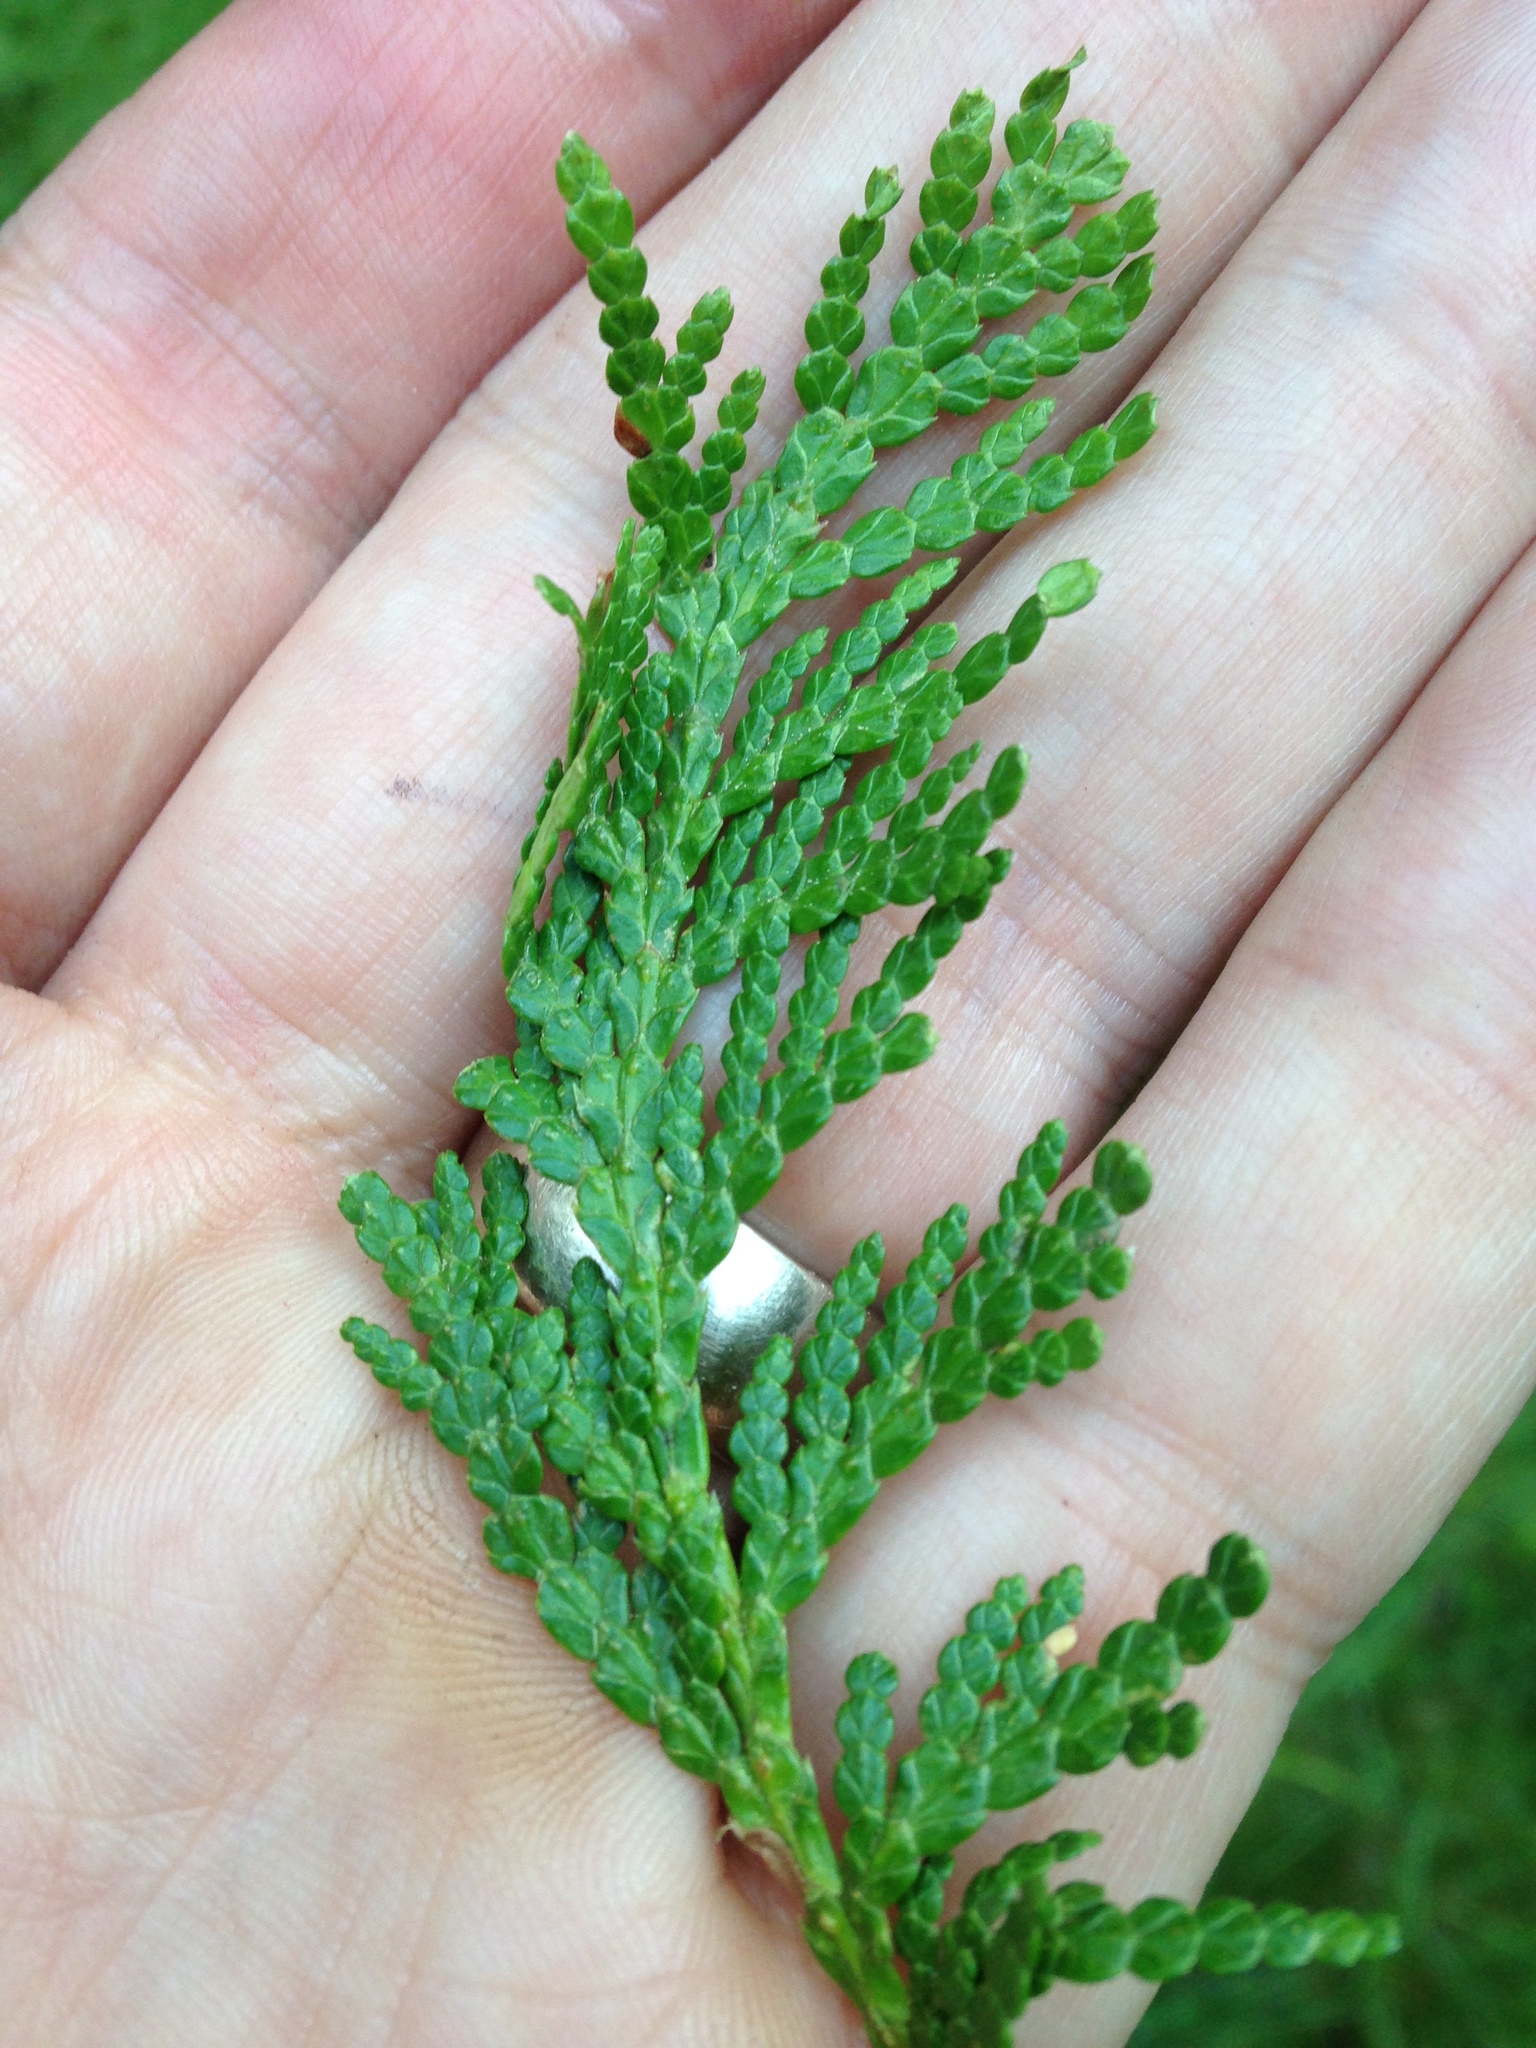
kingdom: Plantae
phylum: Tracheophyta
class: Pinopsida
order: Pinales
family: Cupressaceae
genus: Thuja
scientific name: Thuja occidentalis
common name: Northern white-cedar
